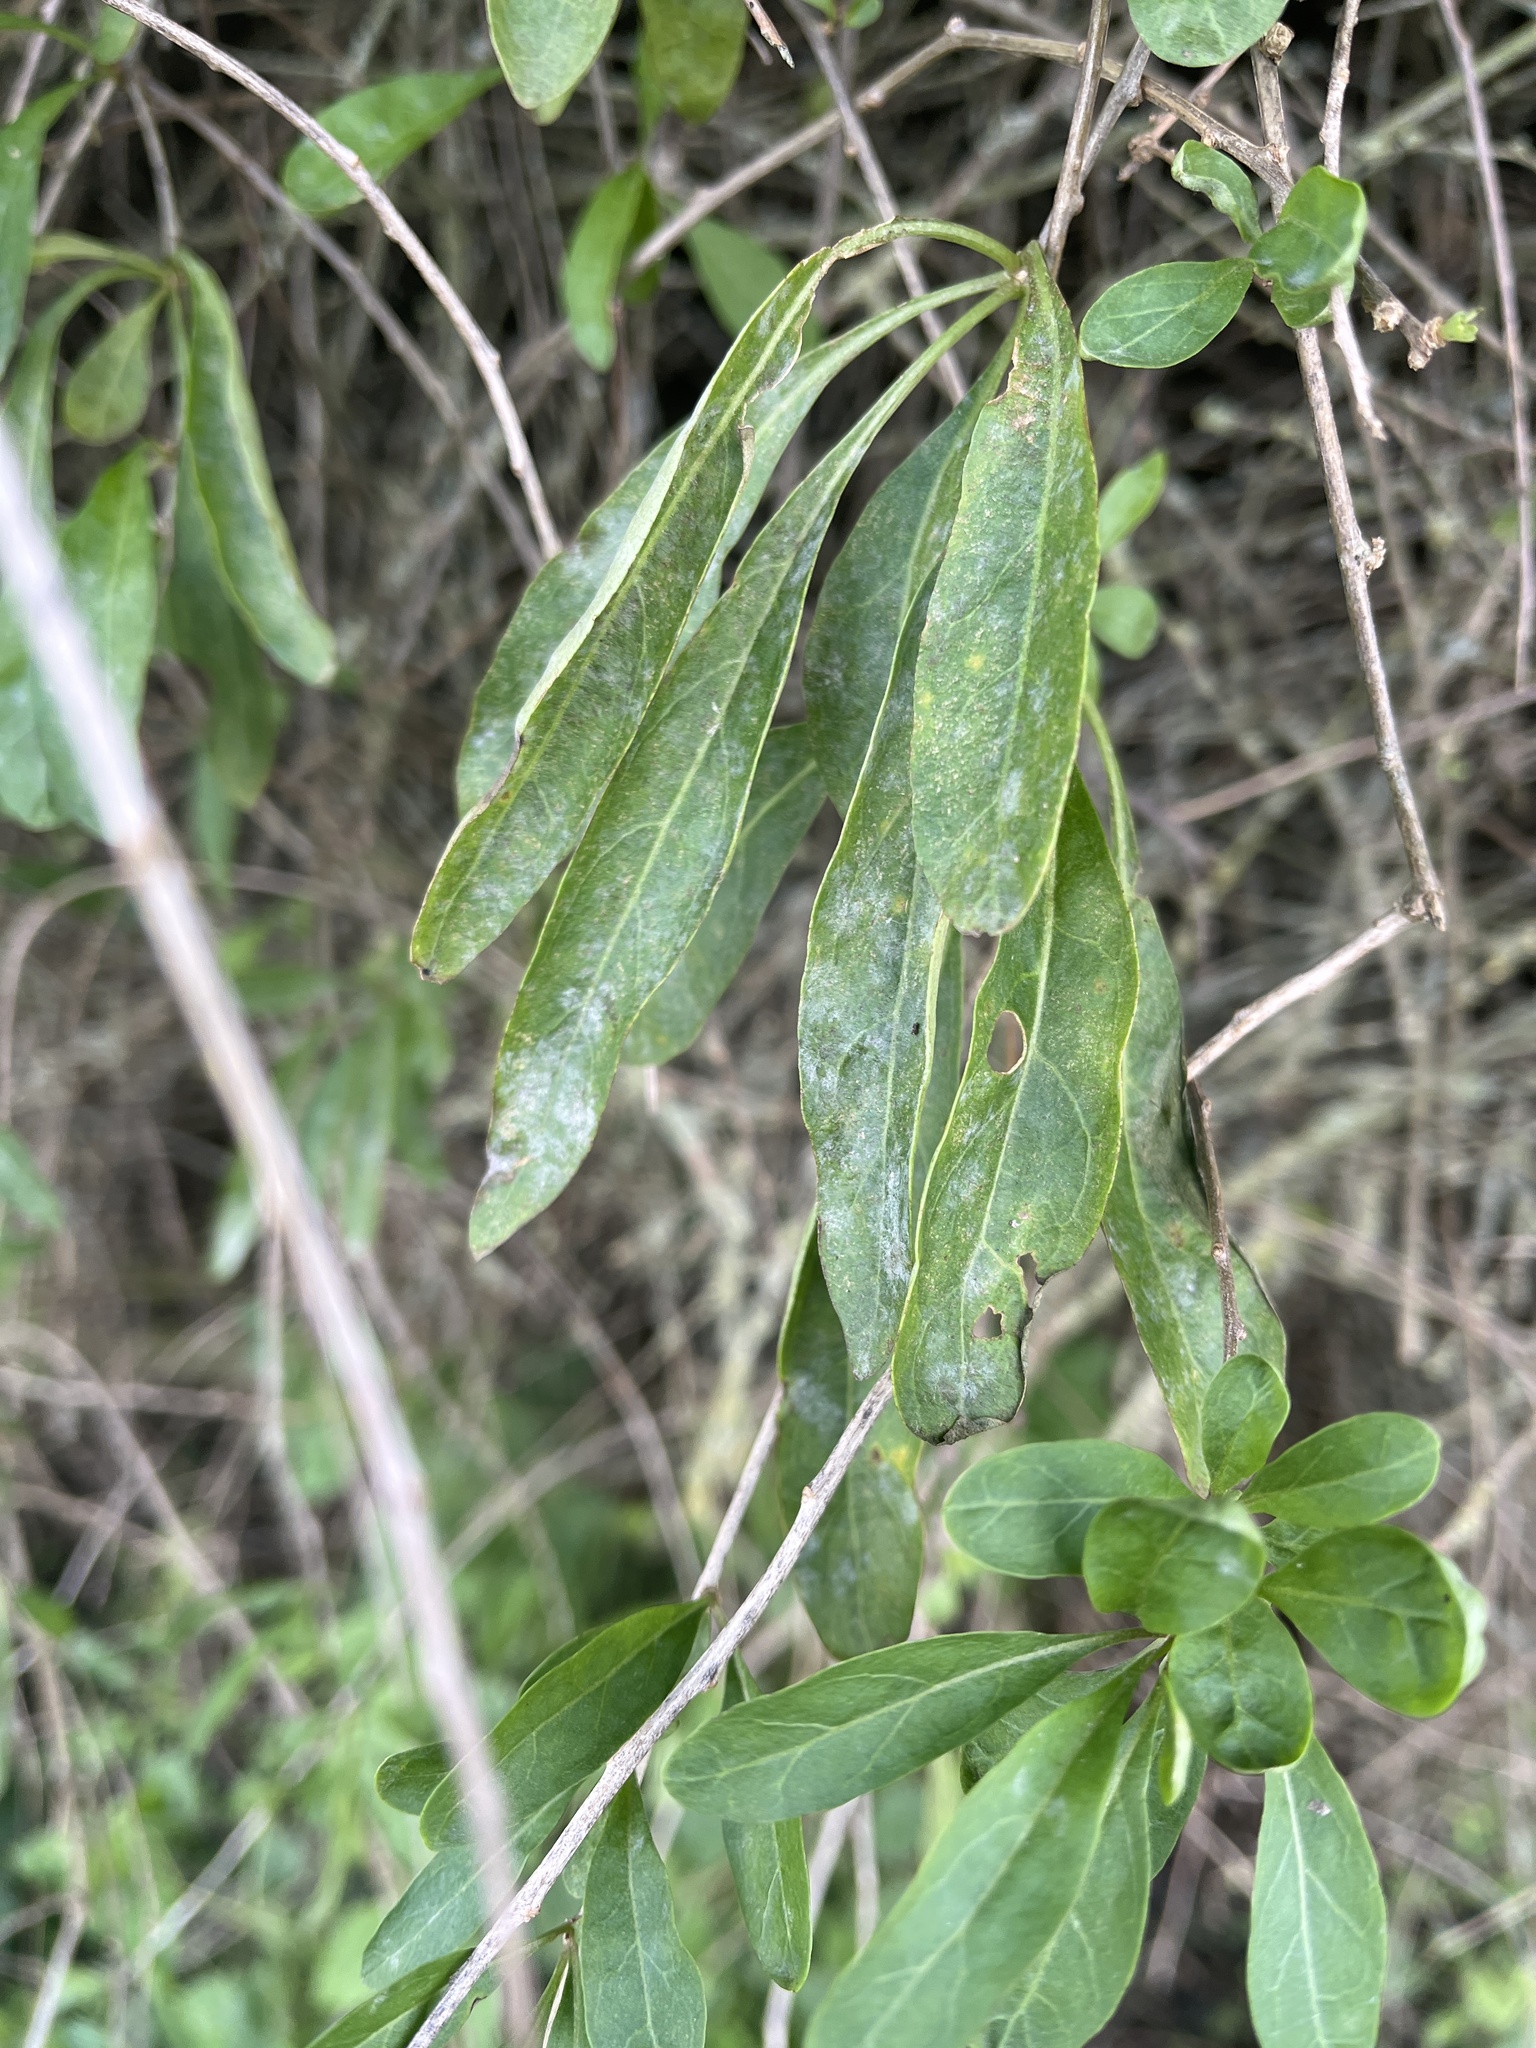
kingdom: Fungi
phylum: Ascomycota
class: Leotiomycetes
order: Helotiales
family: Erysiphaceae
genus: Erysiphe
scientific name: Erysiphe mougeotii
